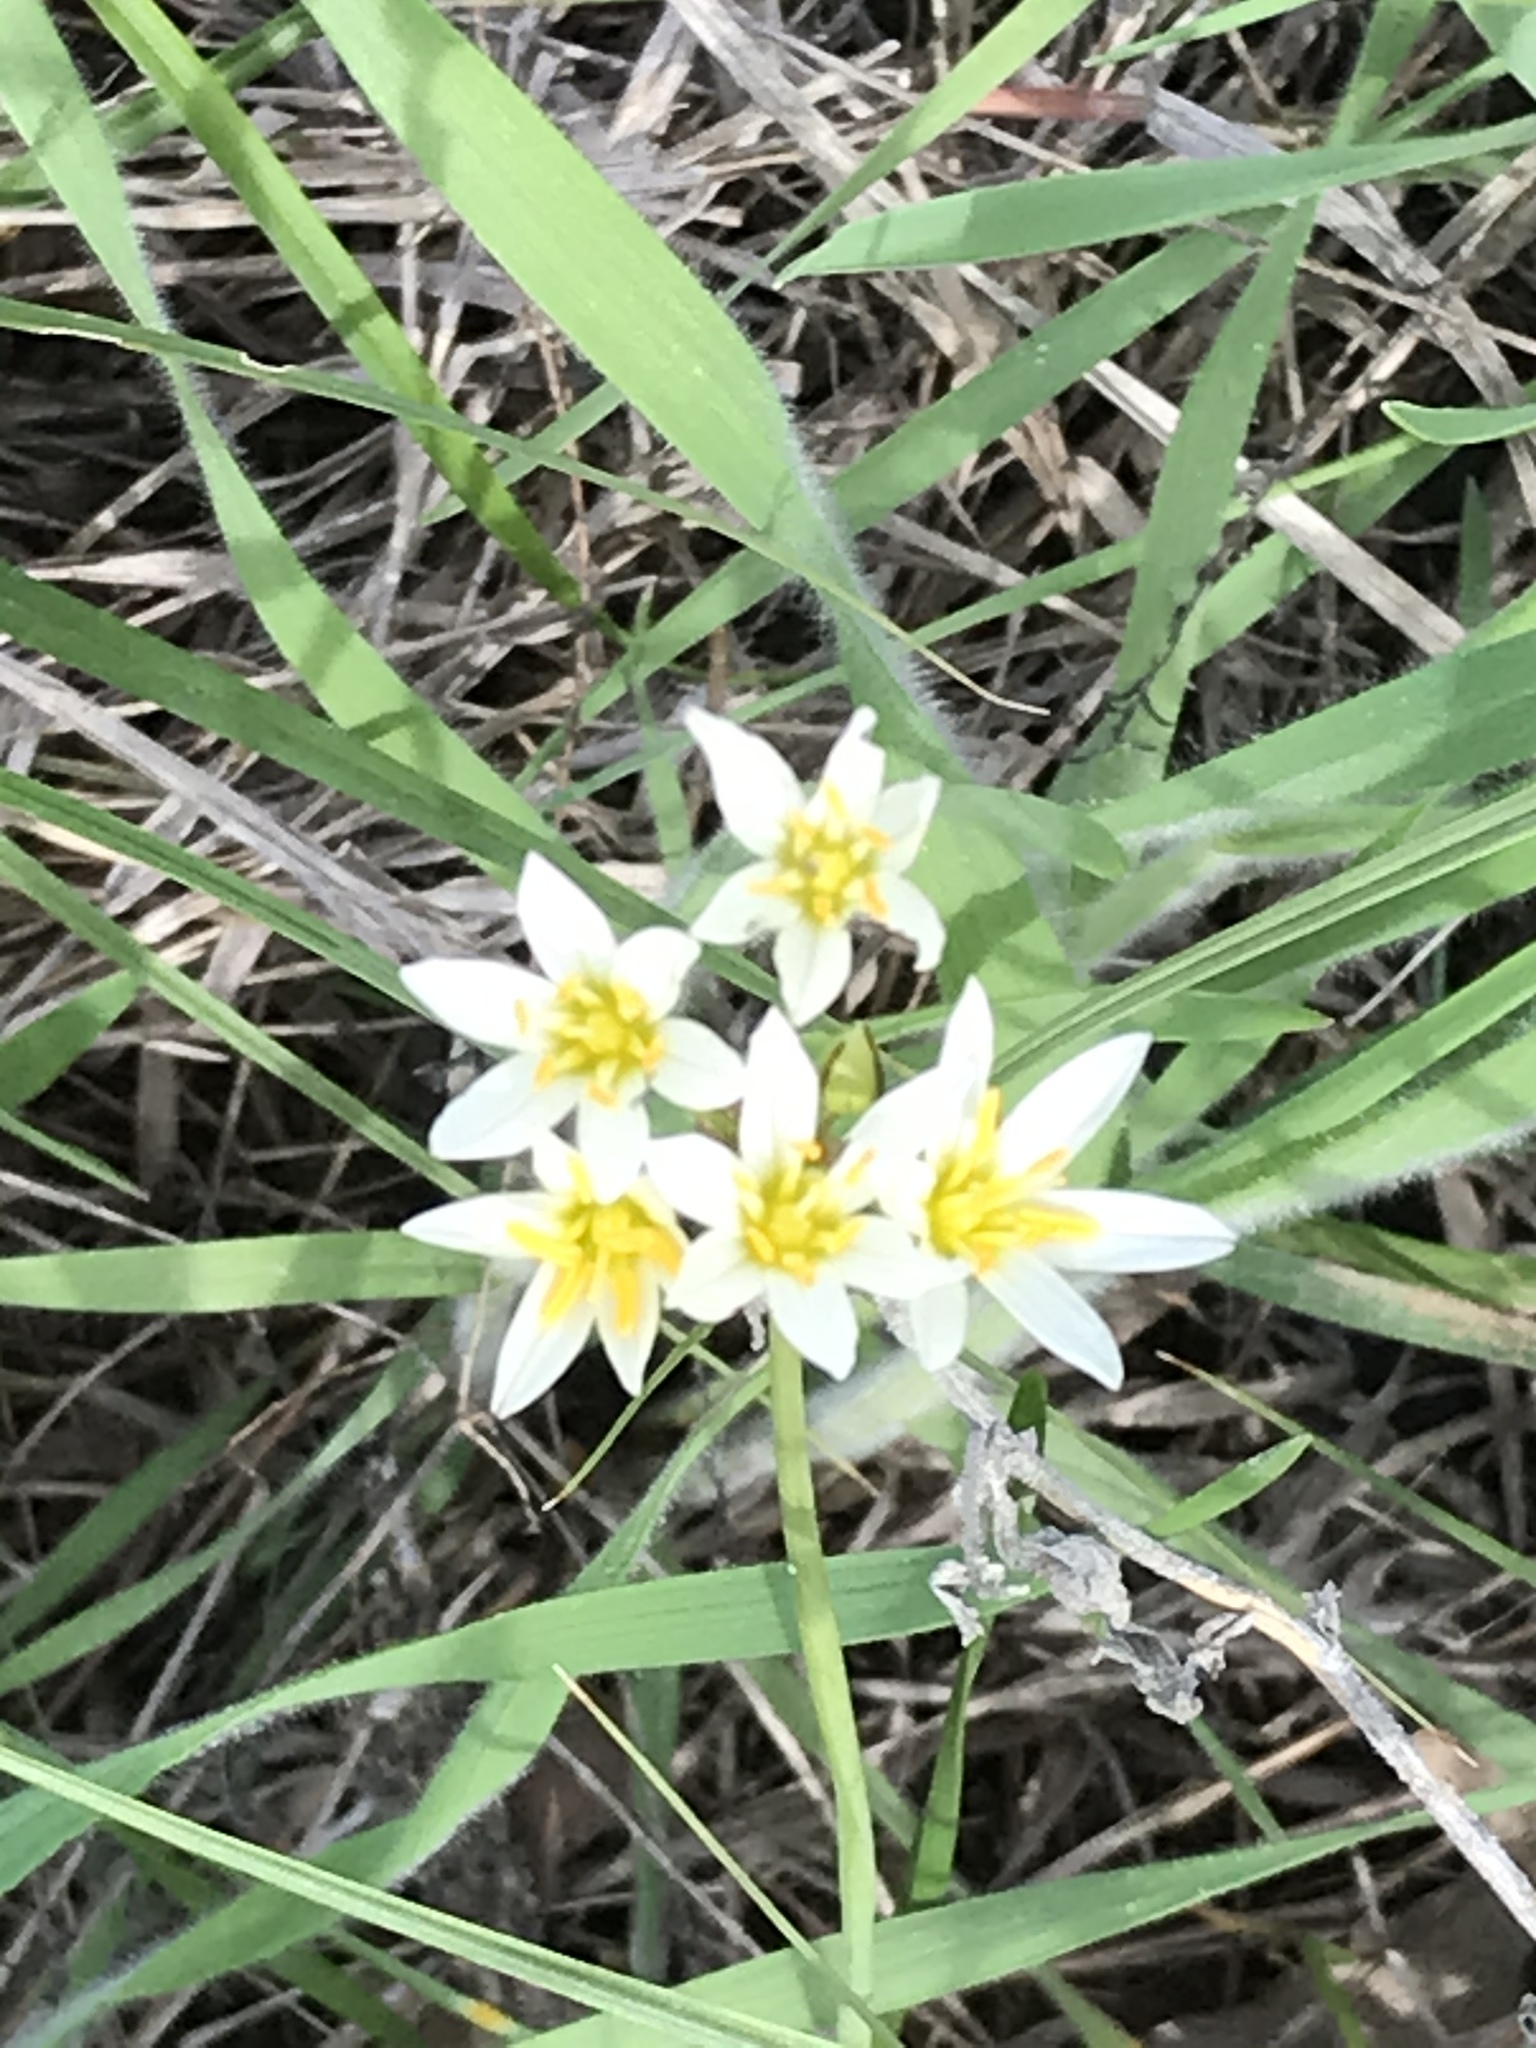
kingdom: Plantae
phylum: Tracheophyta
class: Liliopsida
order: Asparagales
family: Amaryllidaceae
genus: Nothoscordum
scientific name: Nothoscordum bivalve
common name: Crow-poison
